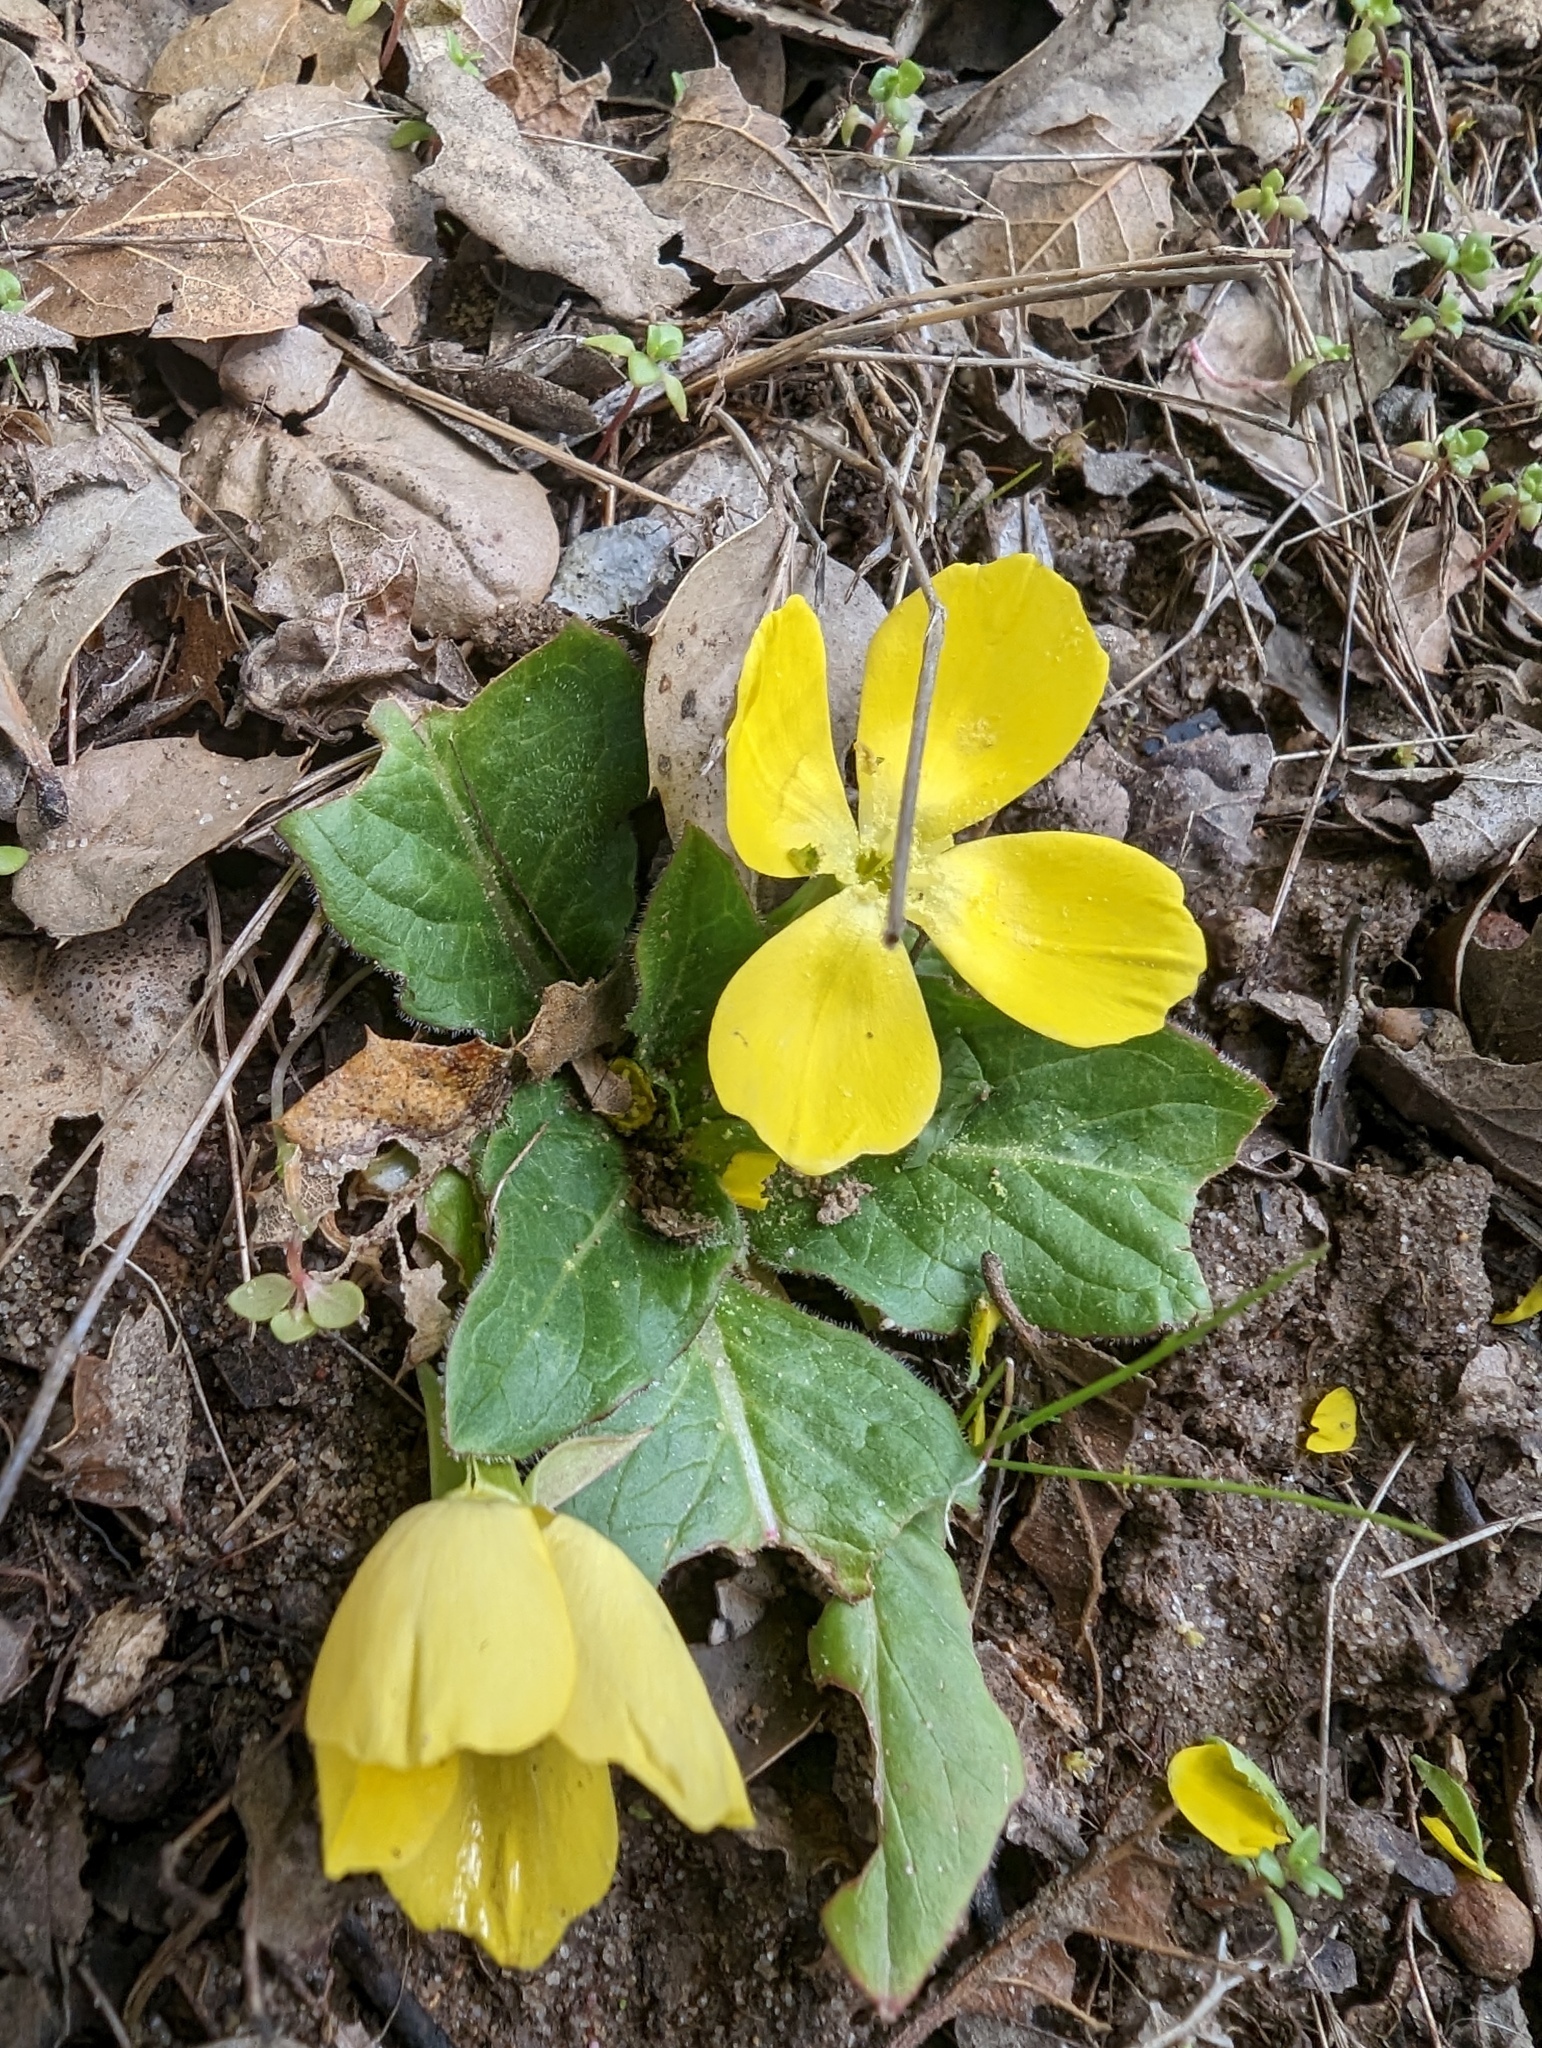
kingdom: Plantae
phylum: Tracheophyta
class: Magnoliopsida
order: Myrtales
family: Onagraceae
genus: Taraxia
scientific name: Taraxia ovata
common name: Goldeneggs
